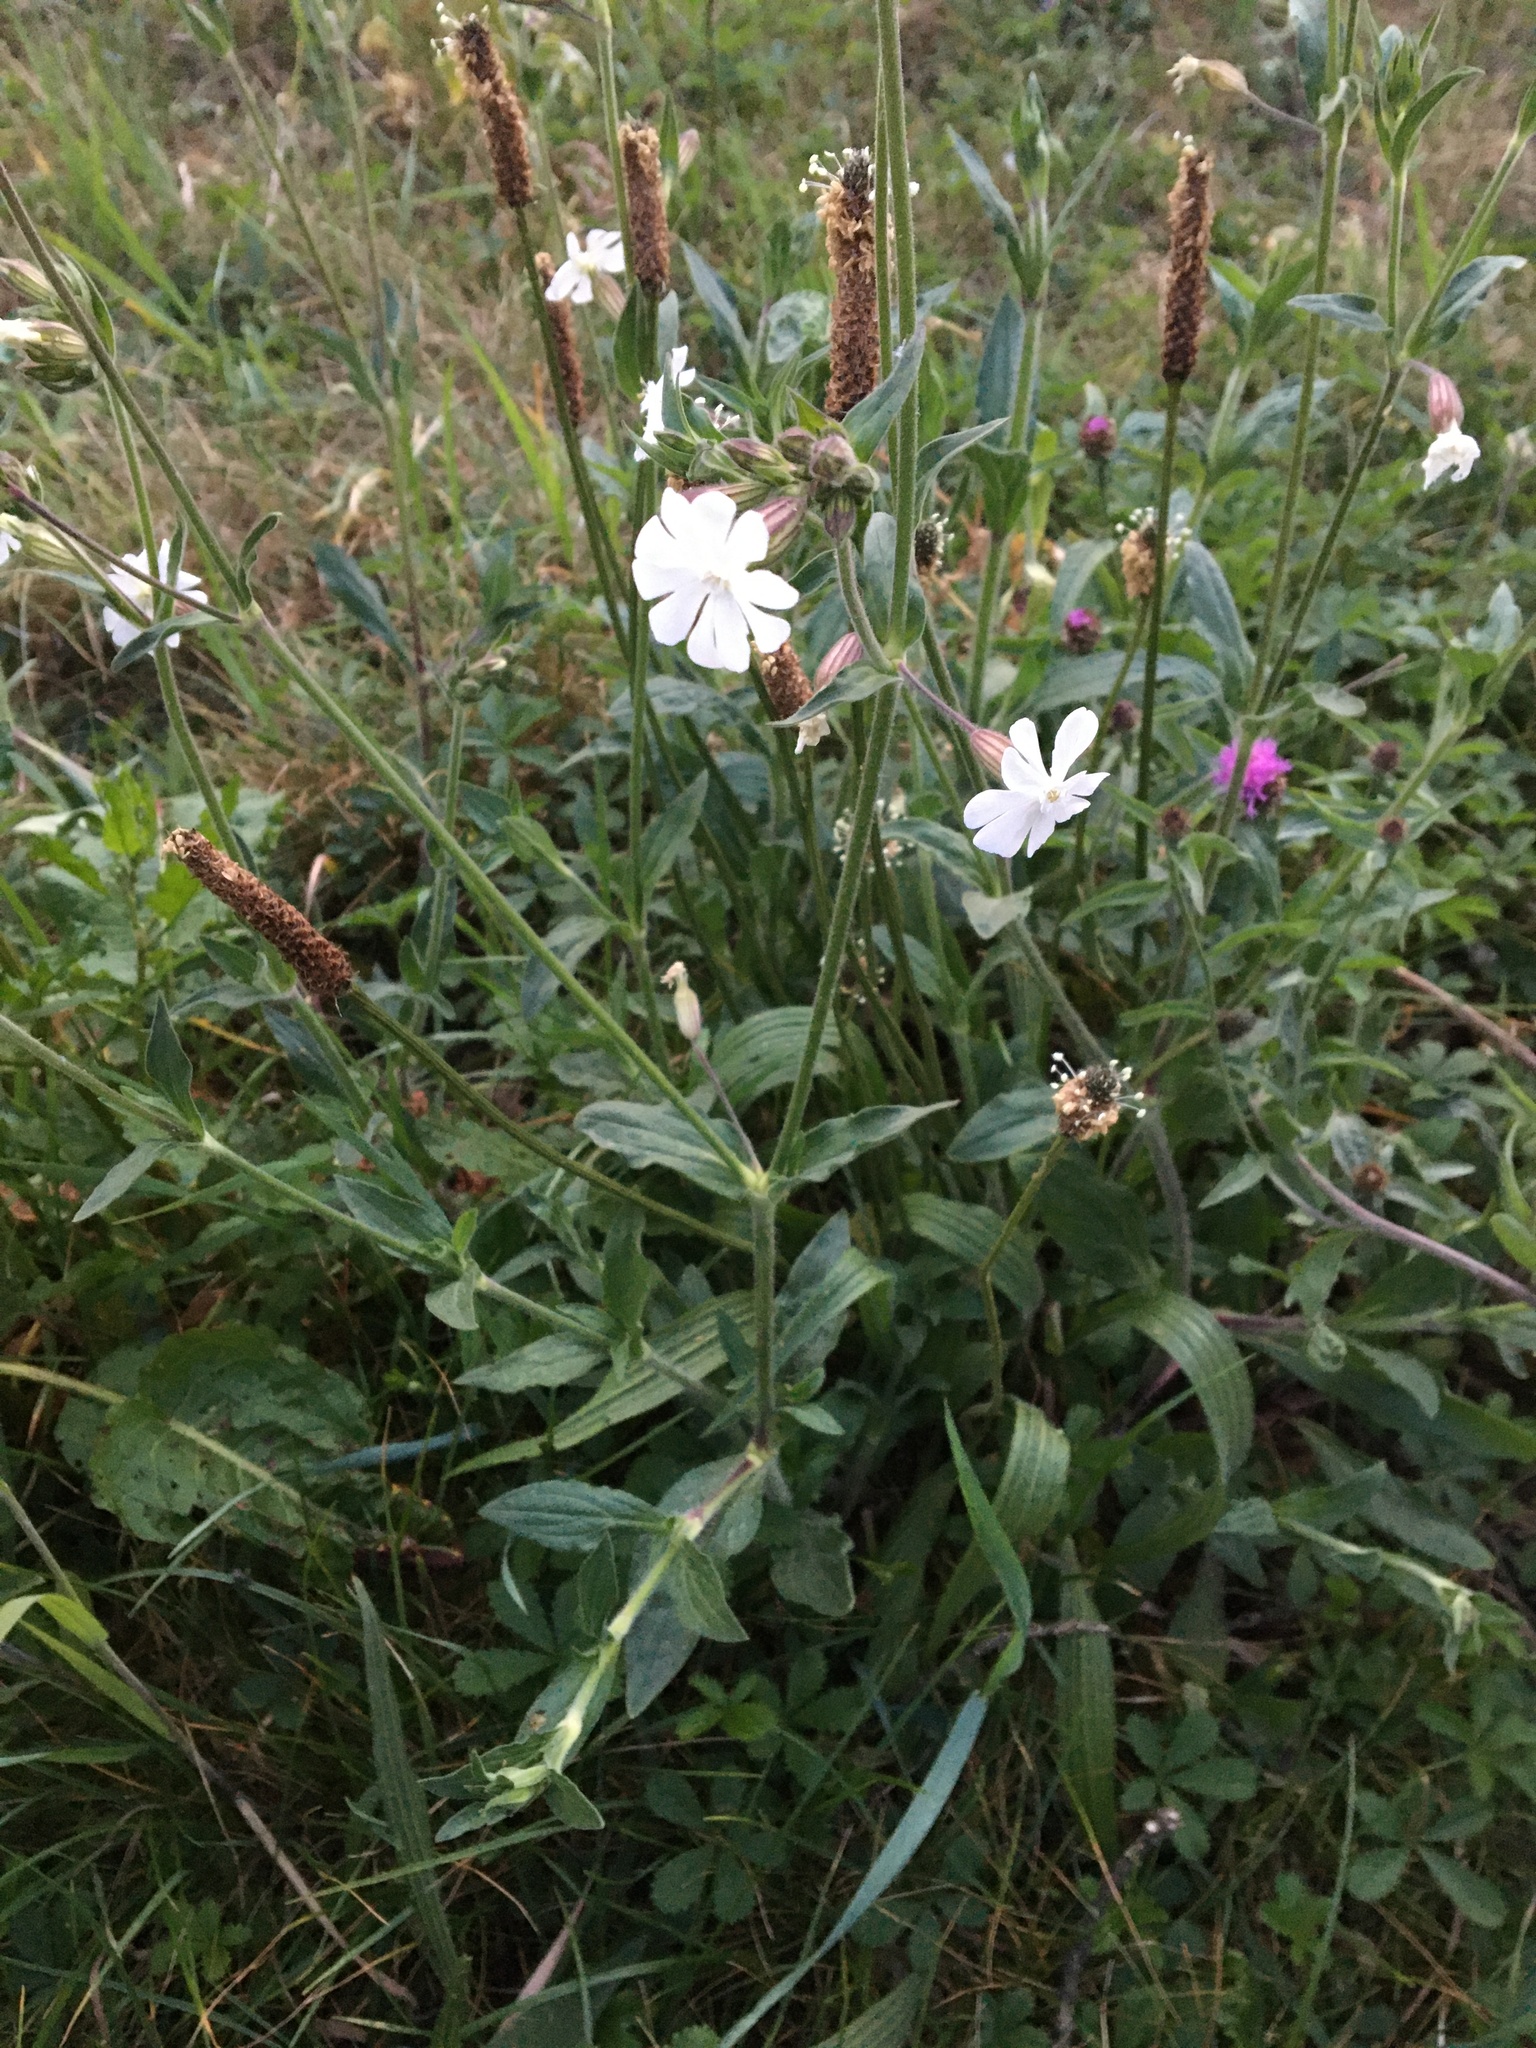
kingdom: Plantae
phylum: Tracheophyta
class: Magnoliopsida
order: Caryophyllales
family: Caryophyllaceae
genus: Silene
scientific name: Silene latifolia
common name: White campion
